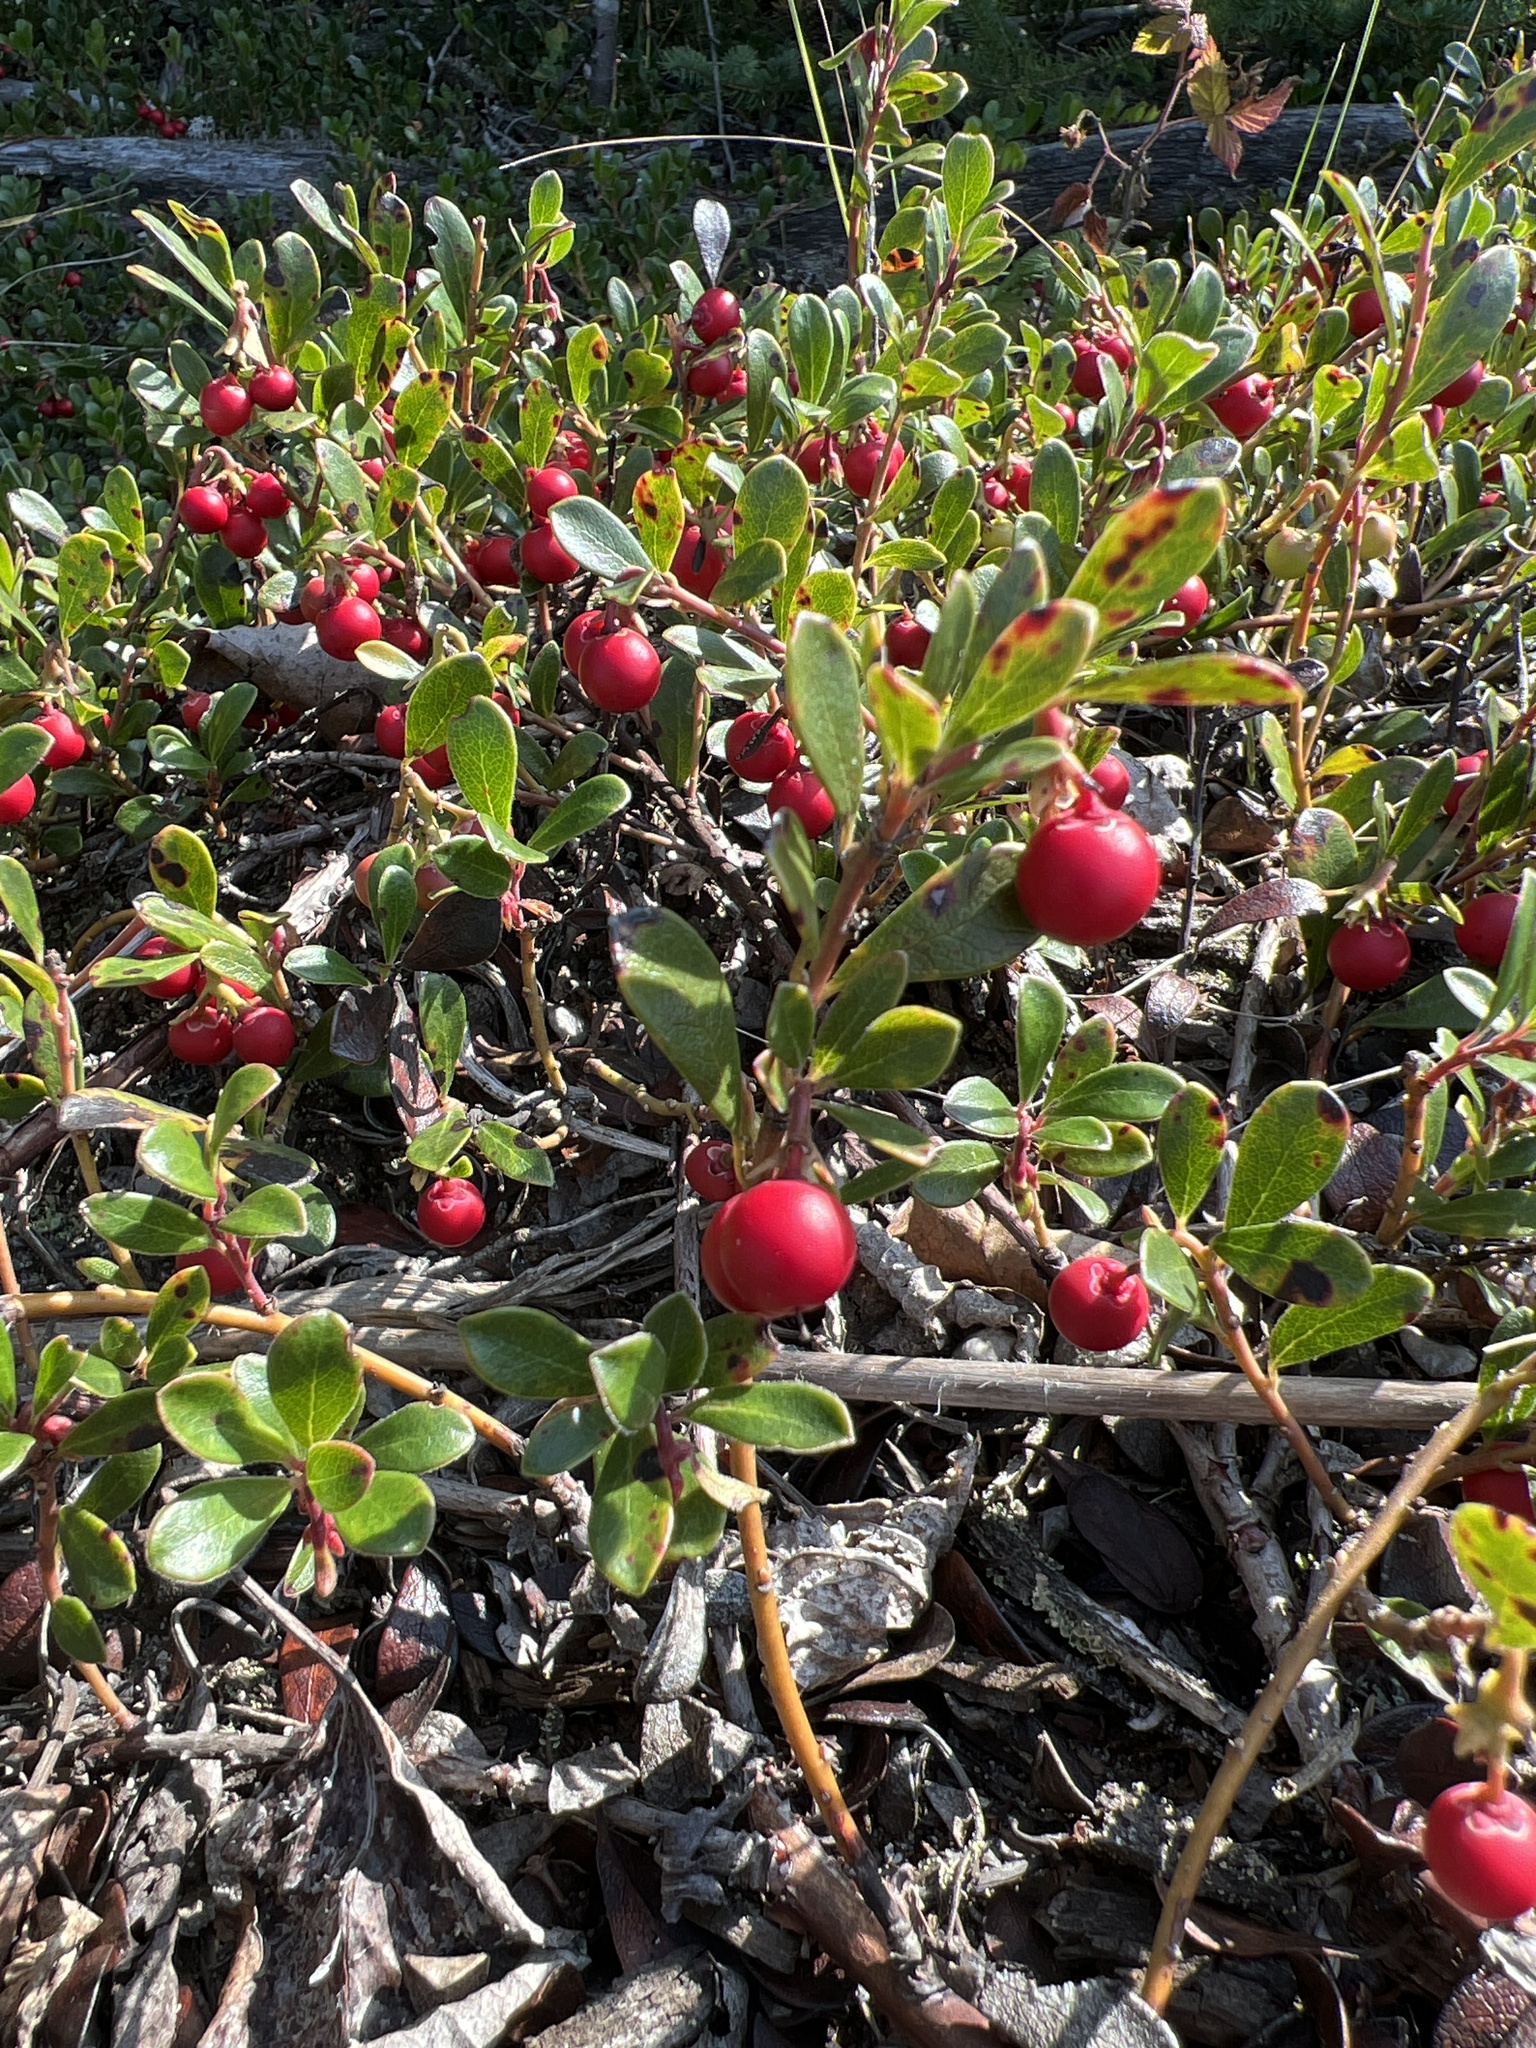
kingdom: Plantae
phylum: Tracheophyta
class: Magnoliopsida
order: Ericales
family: Ericaceae
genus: Arctostaphylos
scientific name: Arctostaphylos uva-ursi
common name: Bearberry
